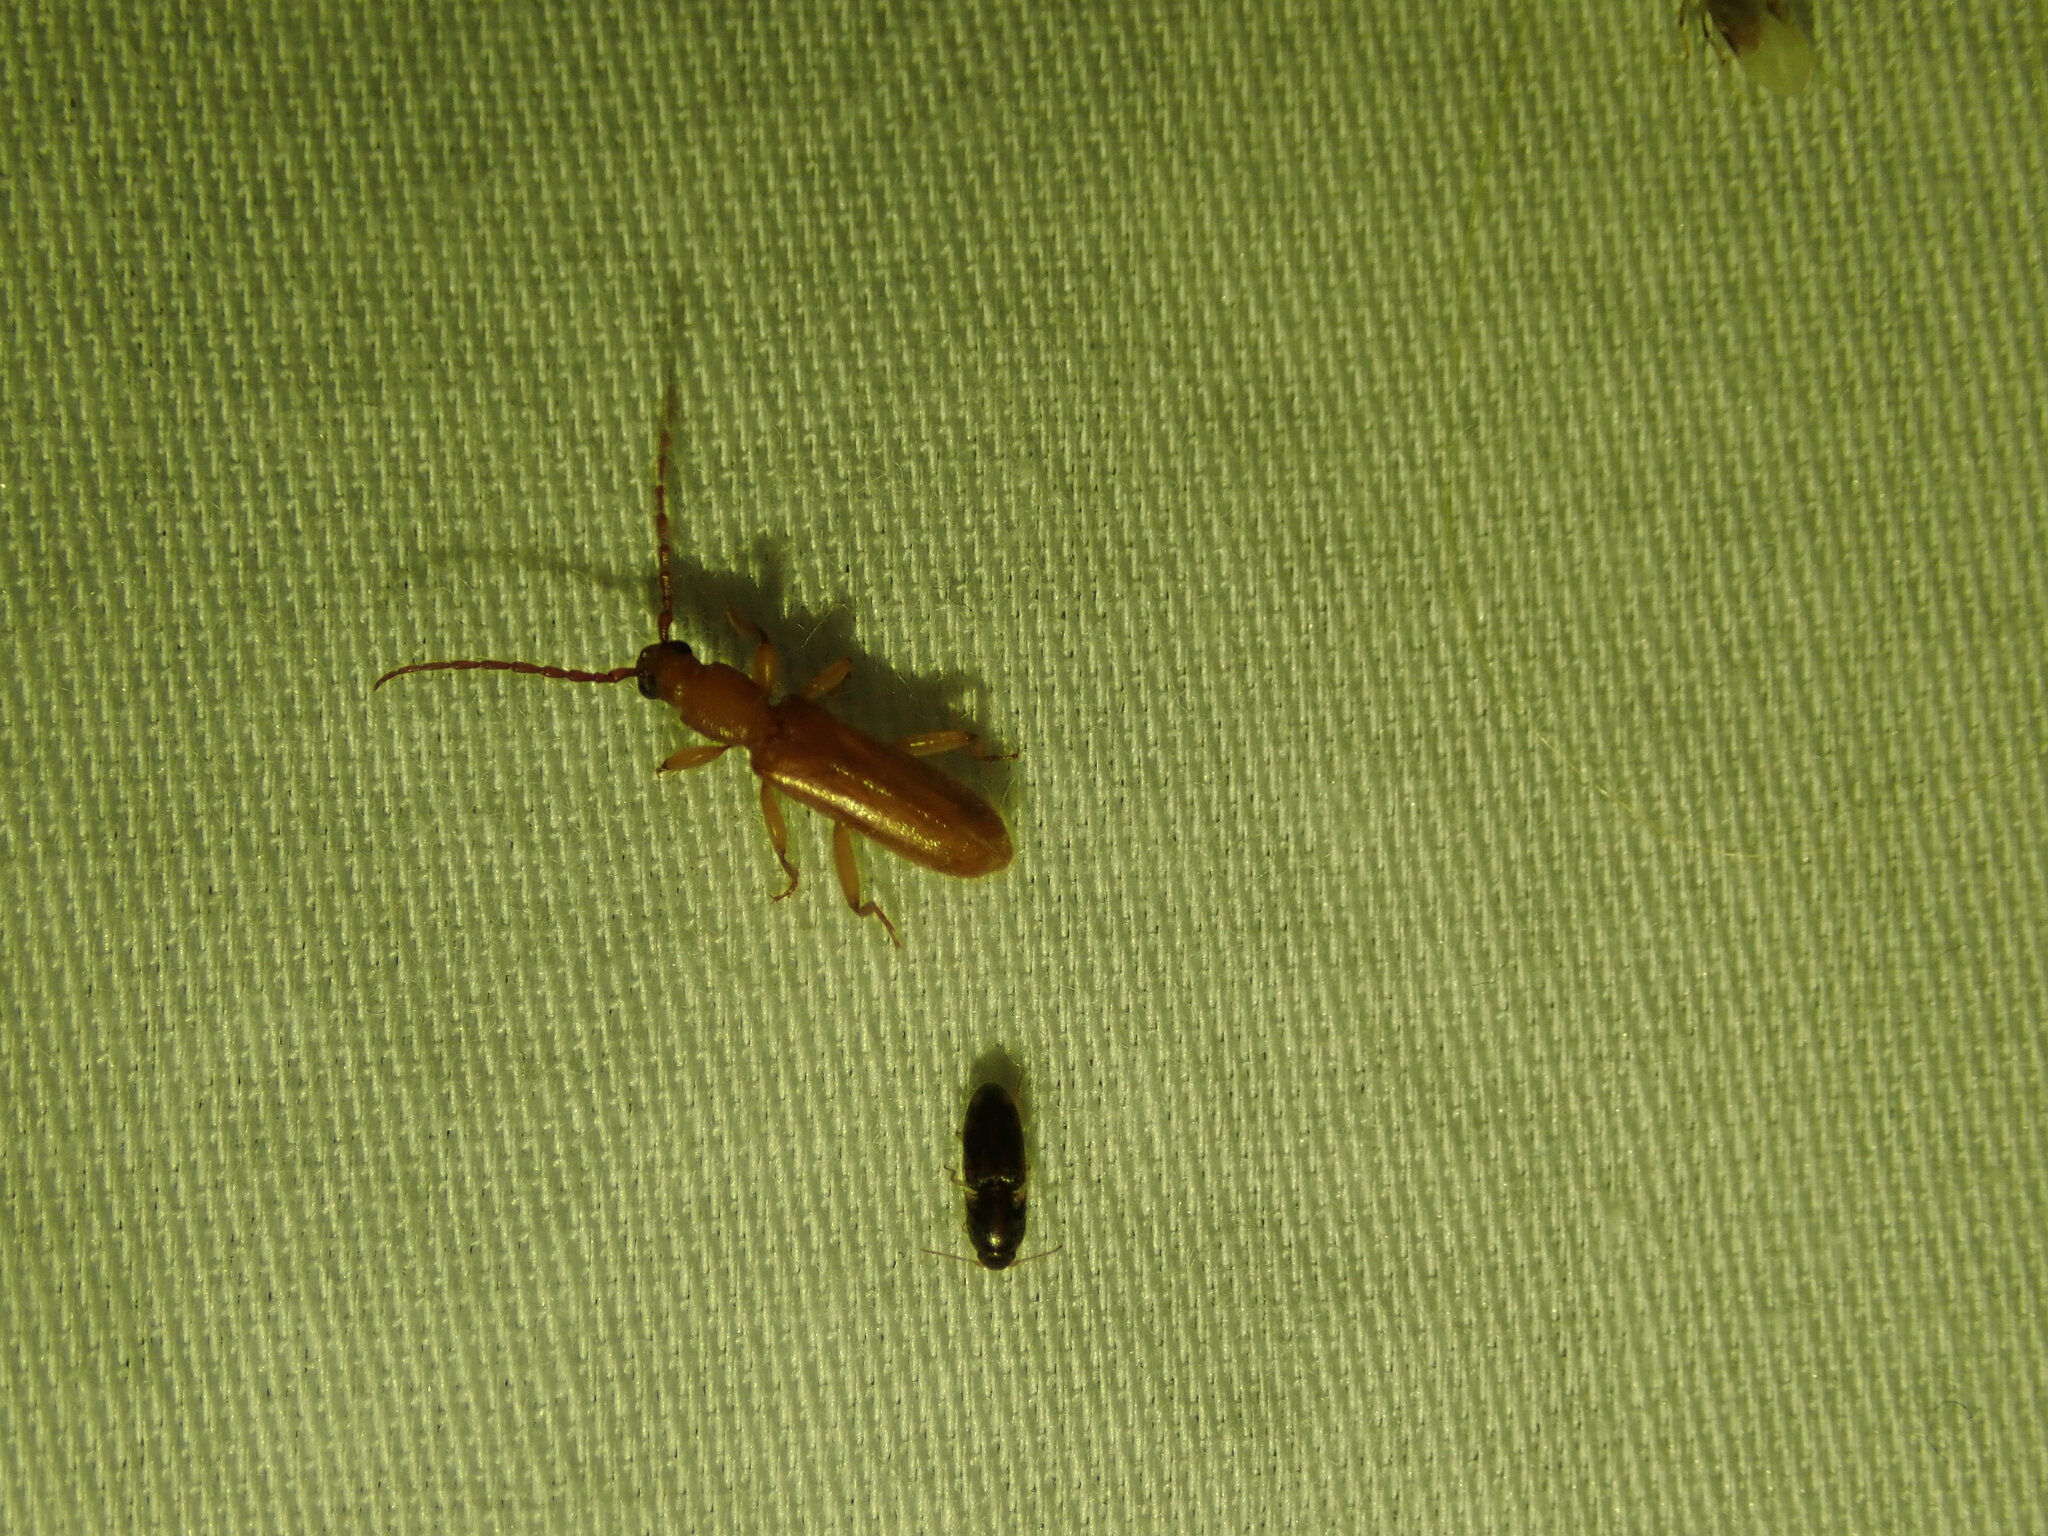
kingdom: Animalia
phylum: Arthropoda
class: Insecta
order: Coleoptera
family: Cerambycidae
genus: Smodicum
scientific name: Smodicum cucujiforme
